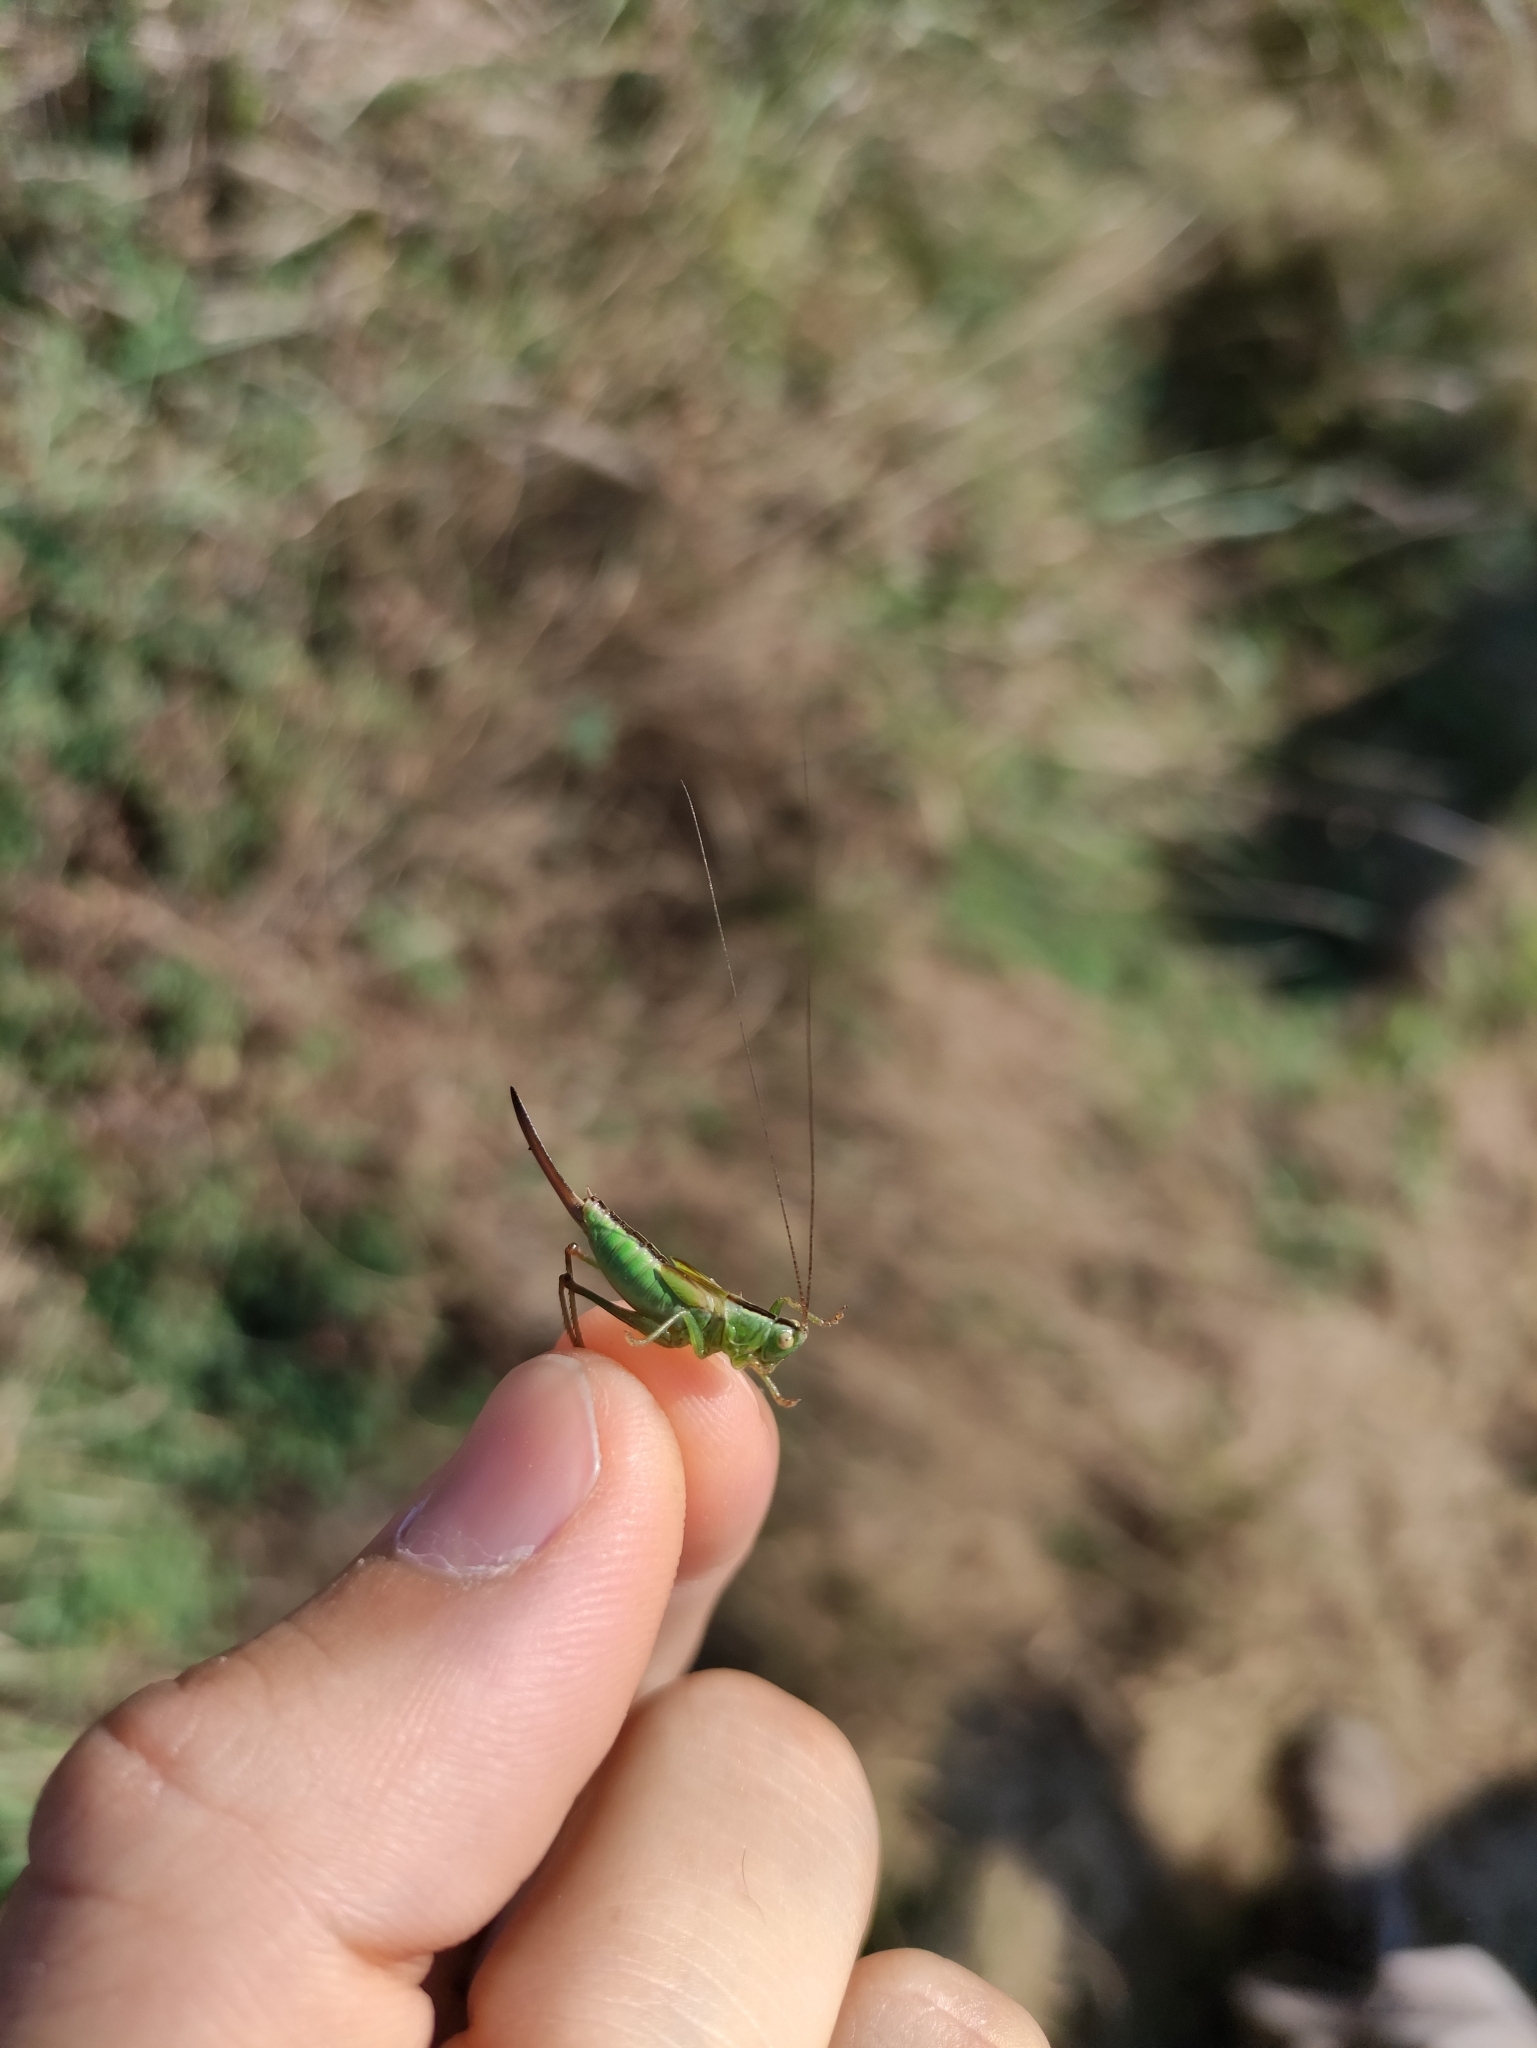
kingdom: Animalia
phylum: Arthropoda
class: Insecta
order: Orthoptera
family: Tettigoniidae
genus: Conocephalus
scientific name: Conocephalus fuscus
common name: Long-winged conehead
